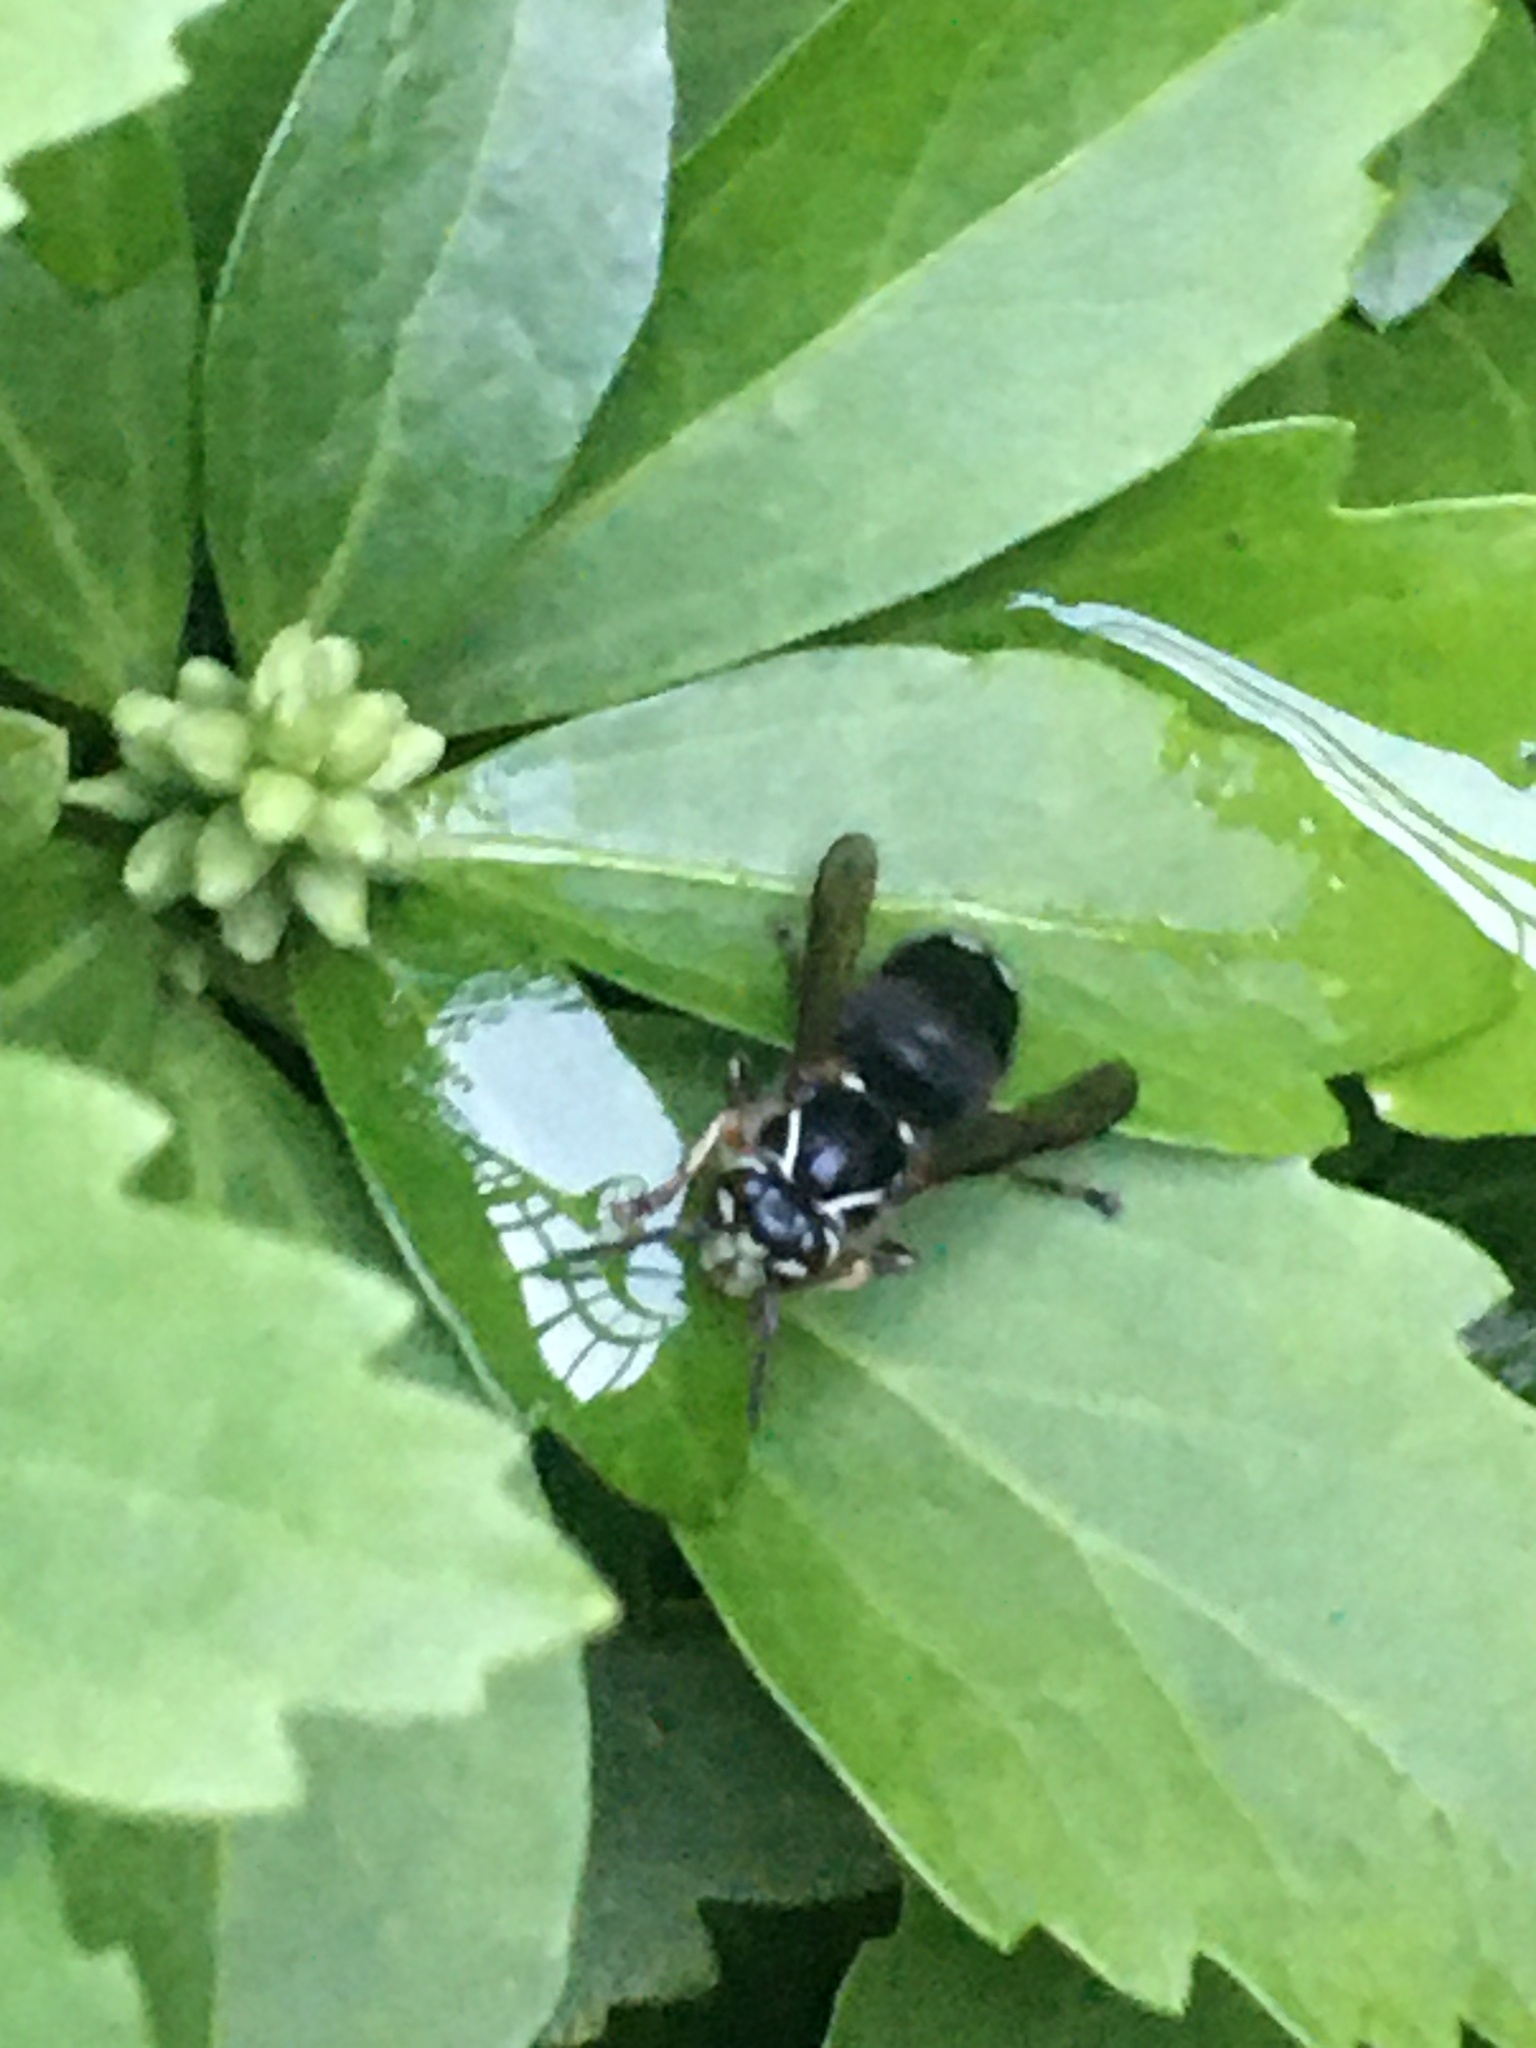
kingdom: Animalia
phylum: Arthropoda
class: Insecta
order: Hymenoptera
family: Vespidae
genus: Dolichovespula
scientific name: Dolichovespula maculata
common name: Bald-faced hornet
